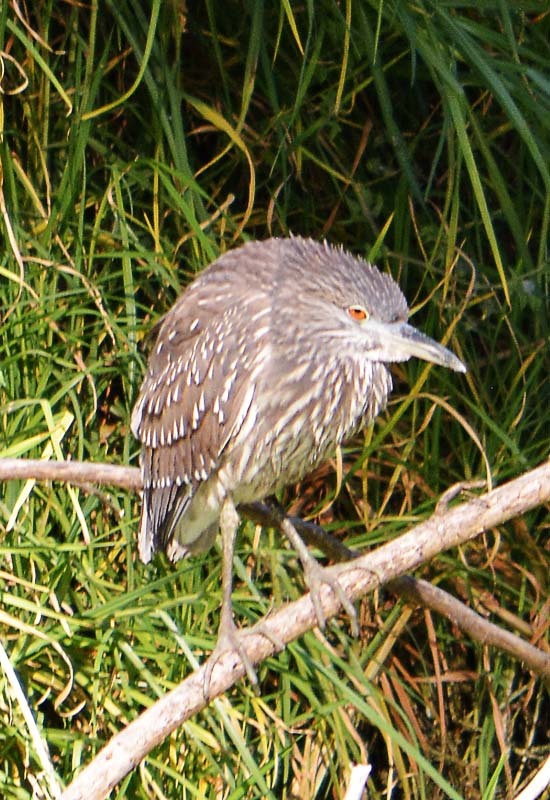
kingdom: Animalia
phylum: Chordata
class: Aves
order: Pelecaniformes
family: Ardeidae
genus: Nycticorax
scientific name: Nycticorax nycticorax
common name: Black-crowned night heron
